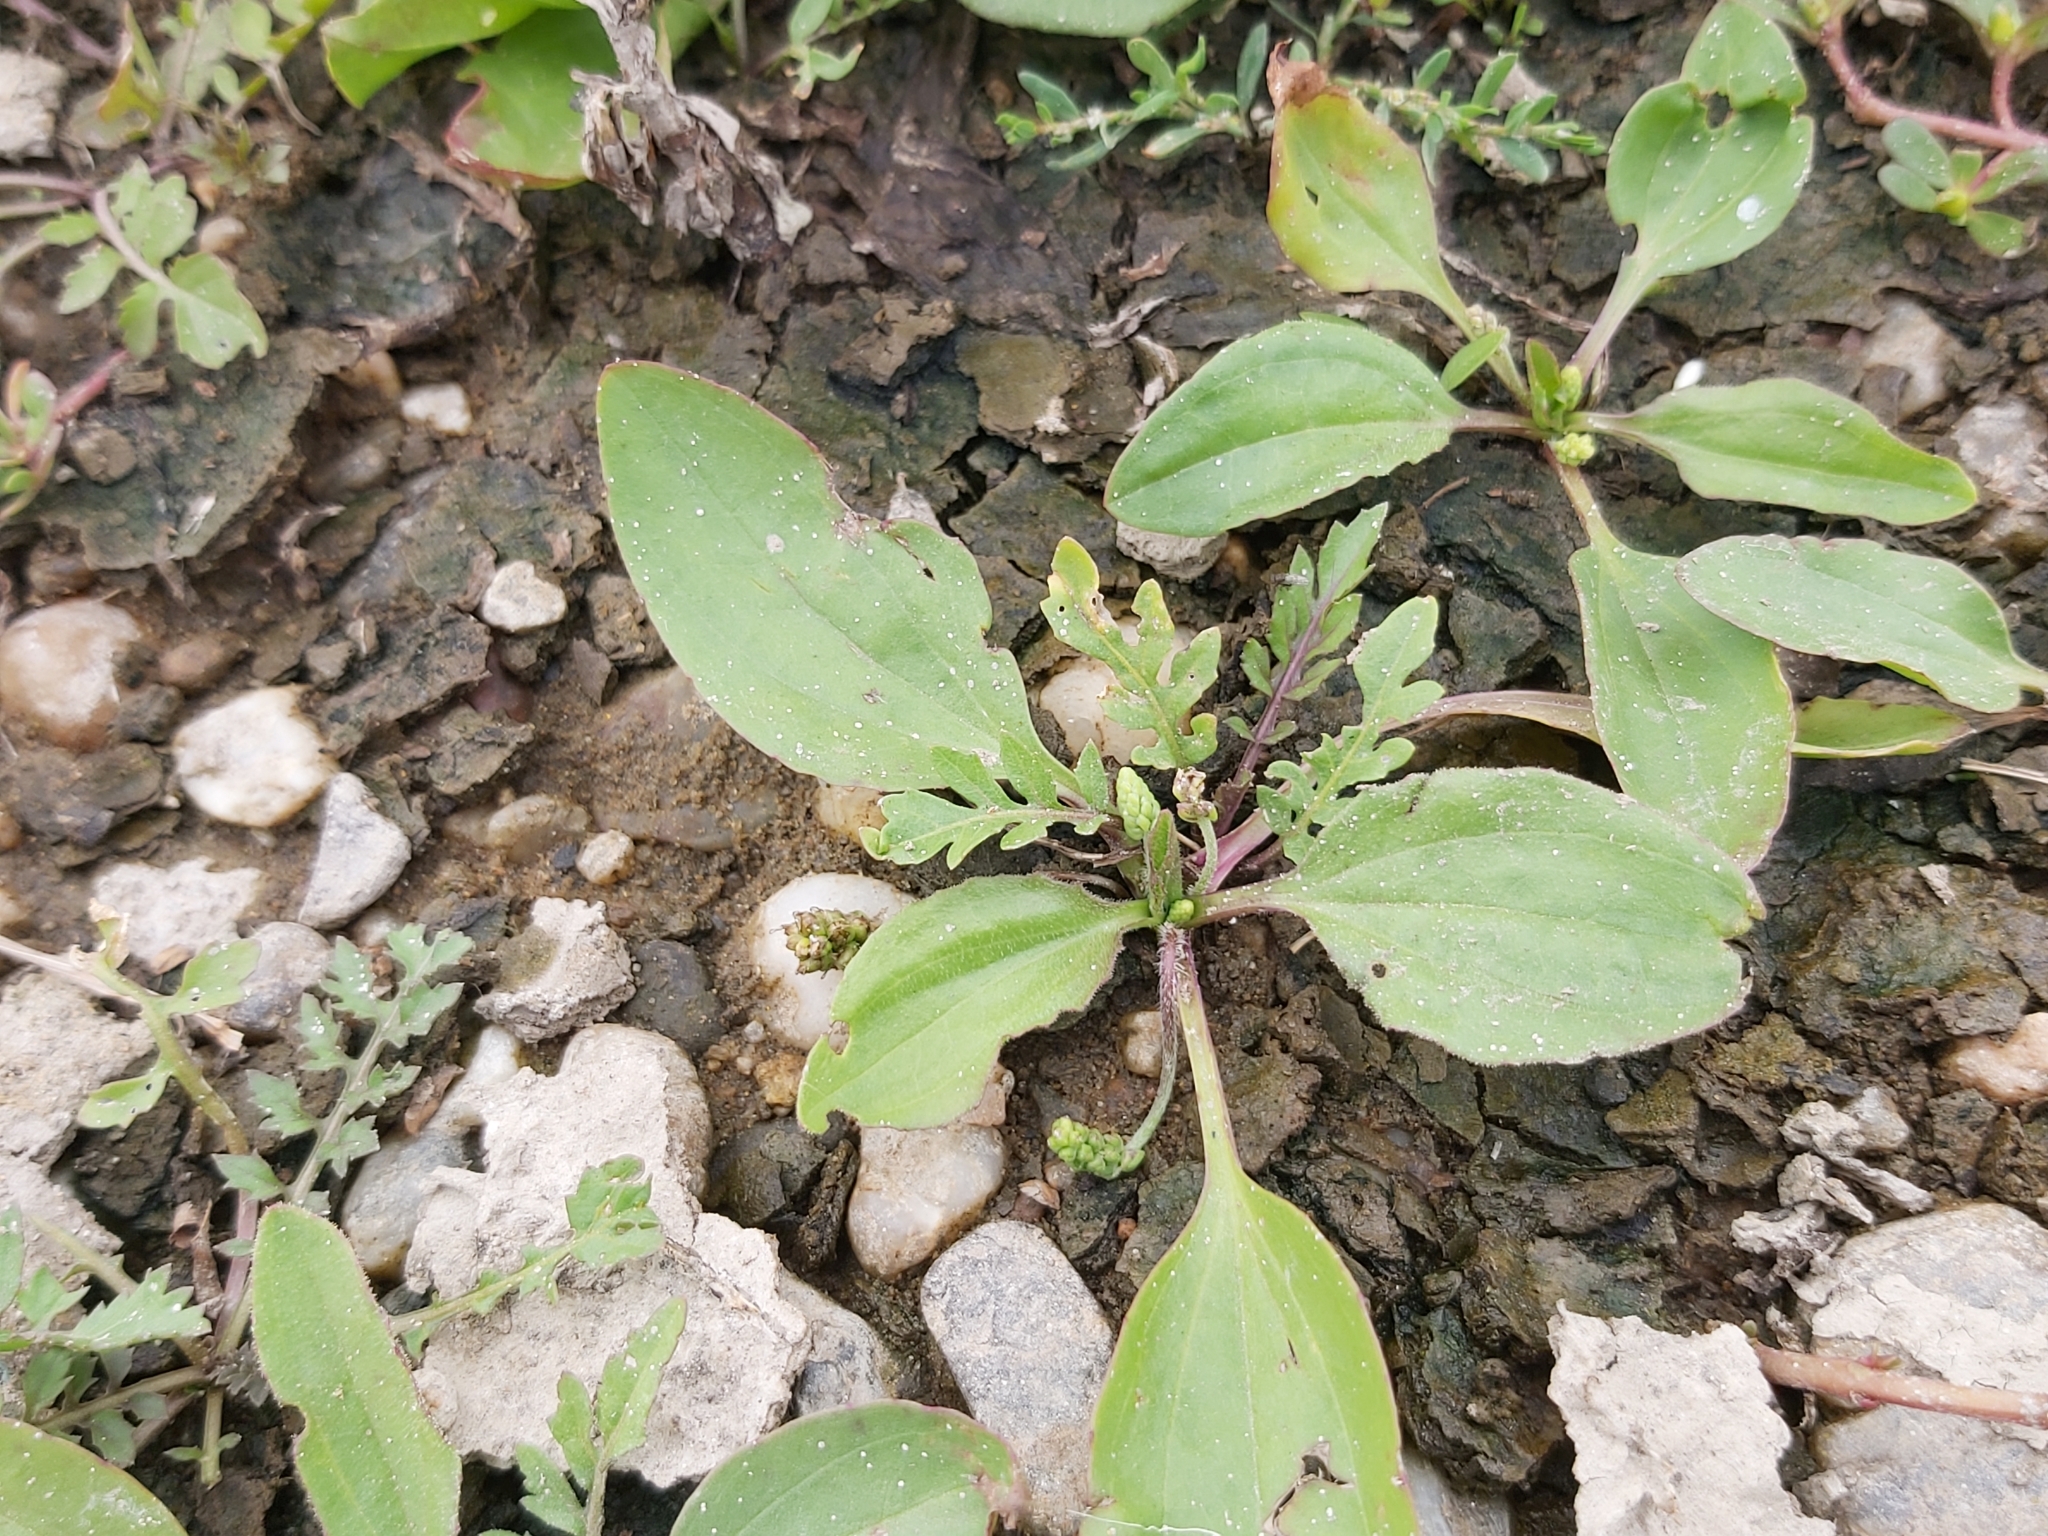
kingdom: Plantae
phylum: Tracheophyta
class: Magnoliopsida
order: Lamiales
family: Plantaginaceae
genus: Plantago
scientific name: Plantago major
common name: Common plantain
